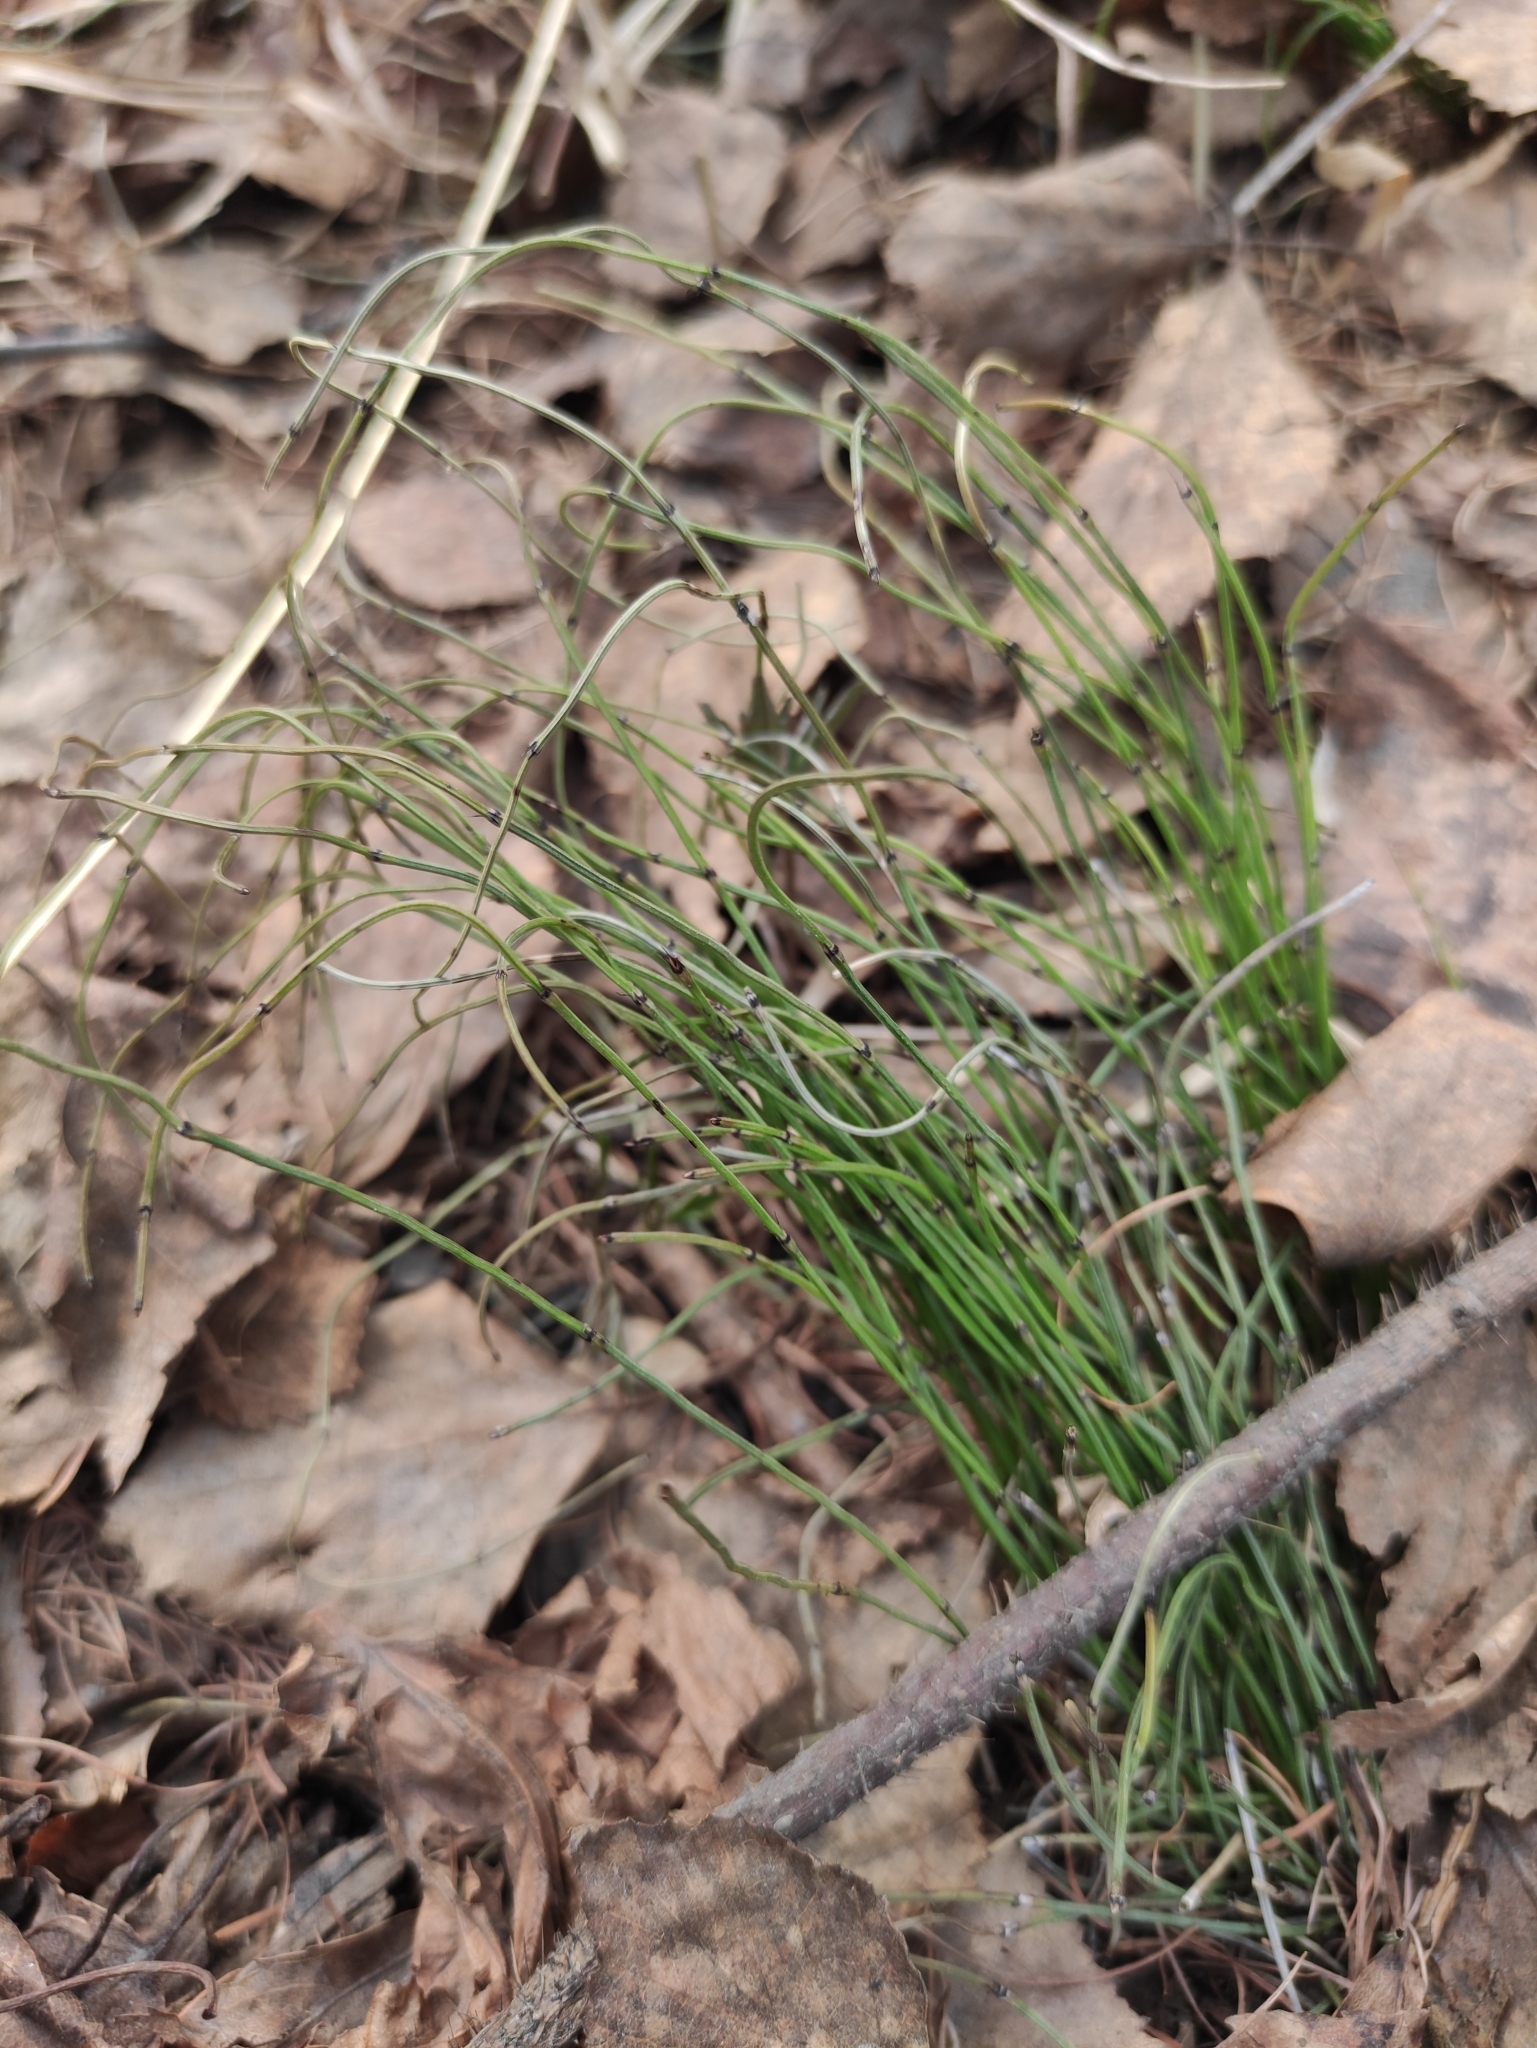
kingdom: Plantae
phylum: Tracheophyta
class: Polypodiopsida
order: Equisetales
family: Equisetaceae
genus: Equisetum
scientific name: Equisetum scirpoides
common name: Delicate horsetail
